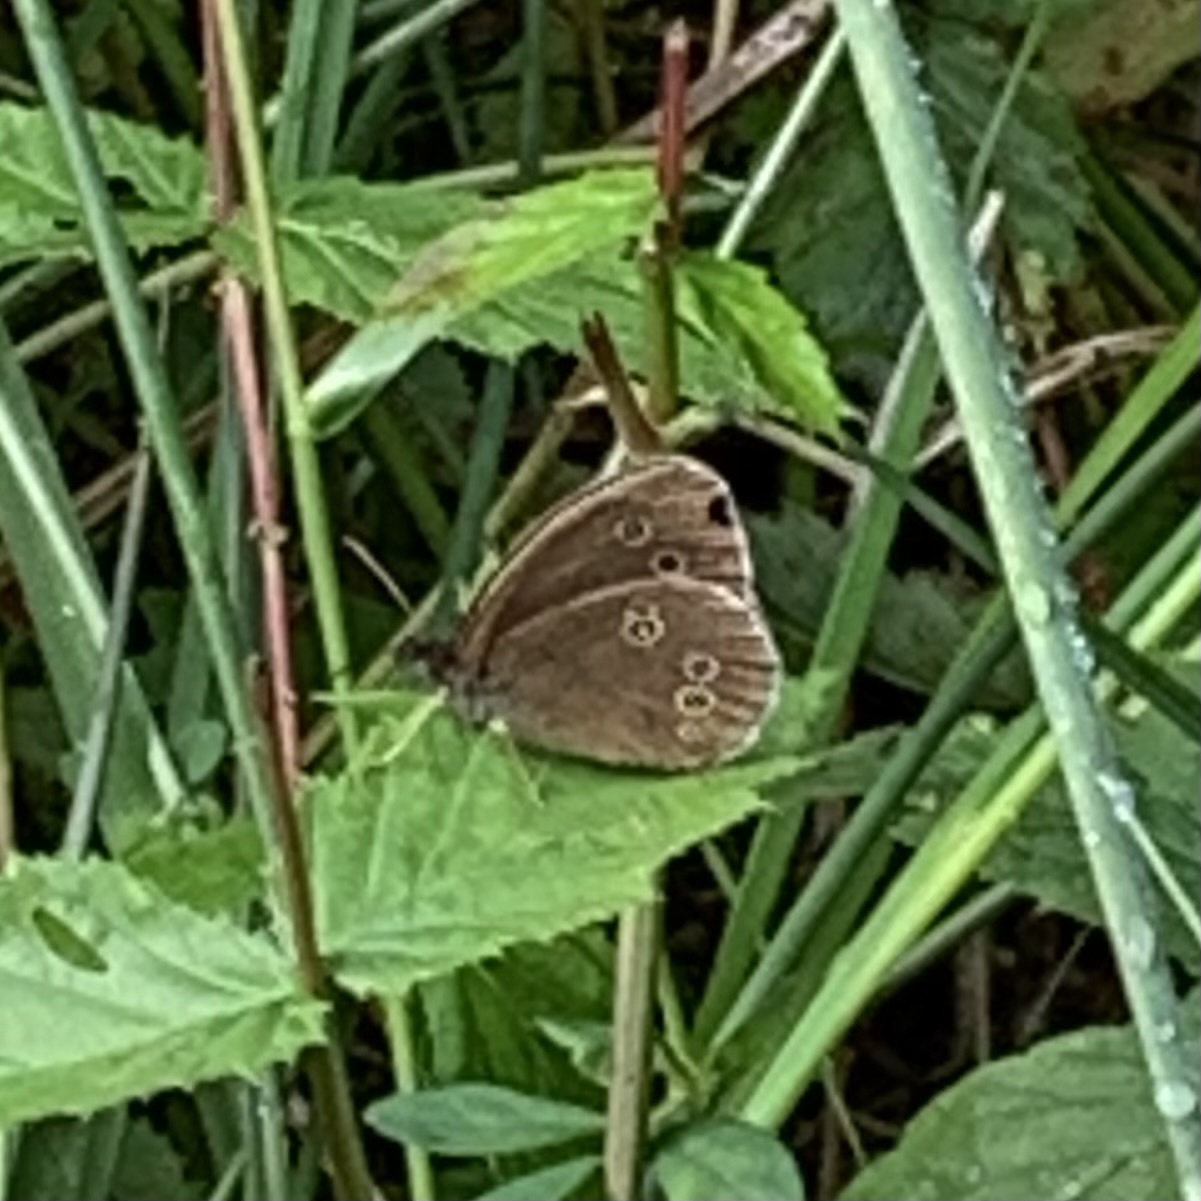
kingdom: Animalia
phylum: Arthropoda
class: Insecta
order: Lepidoptera
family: Nymphalidae
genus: Aphantopus
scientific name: Aphantopus hyperantus
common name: Ringlet
